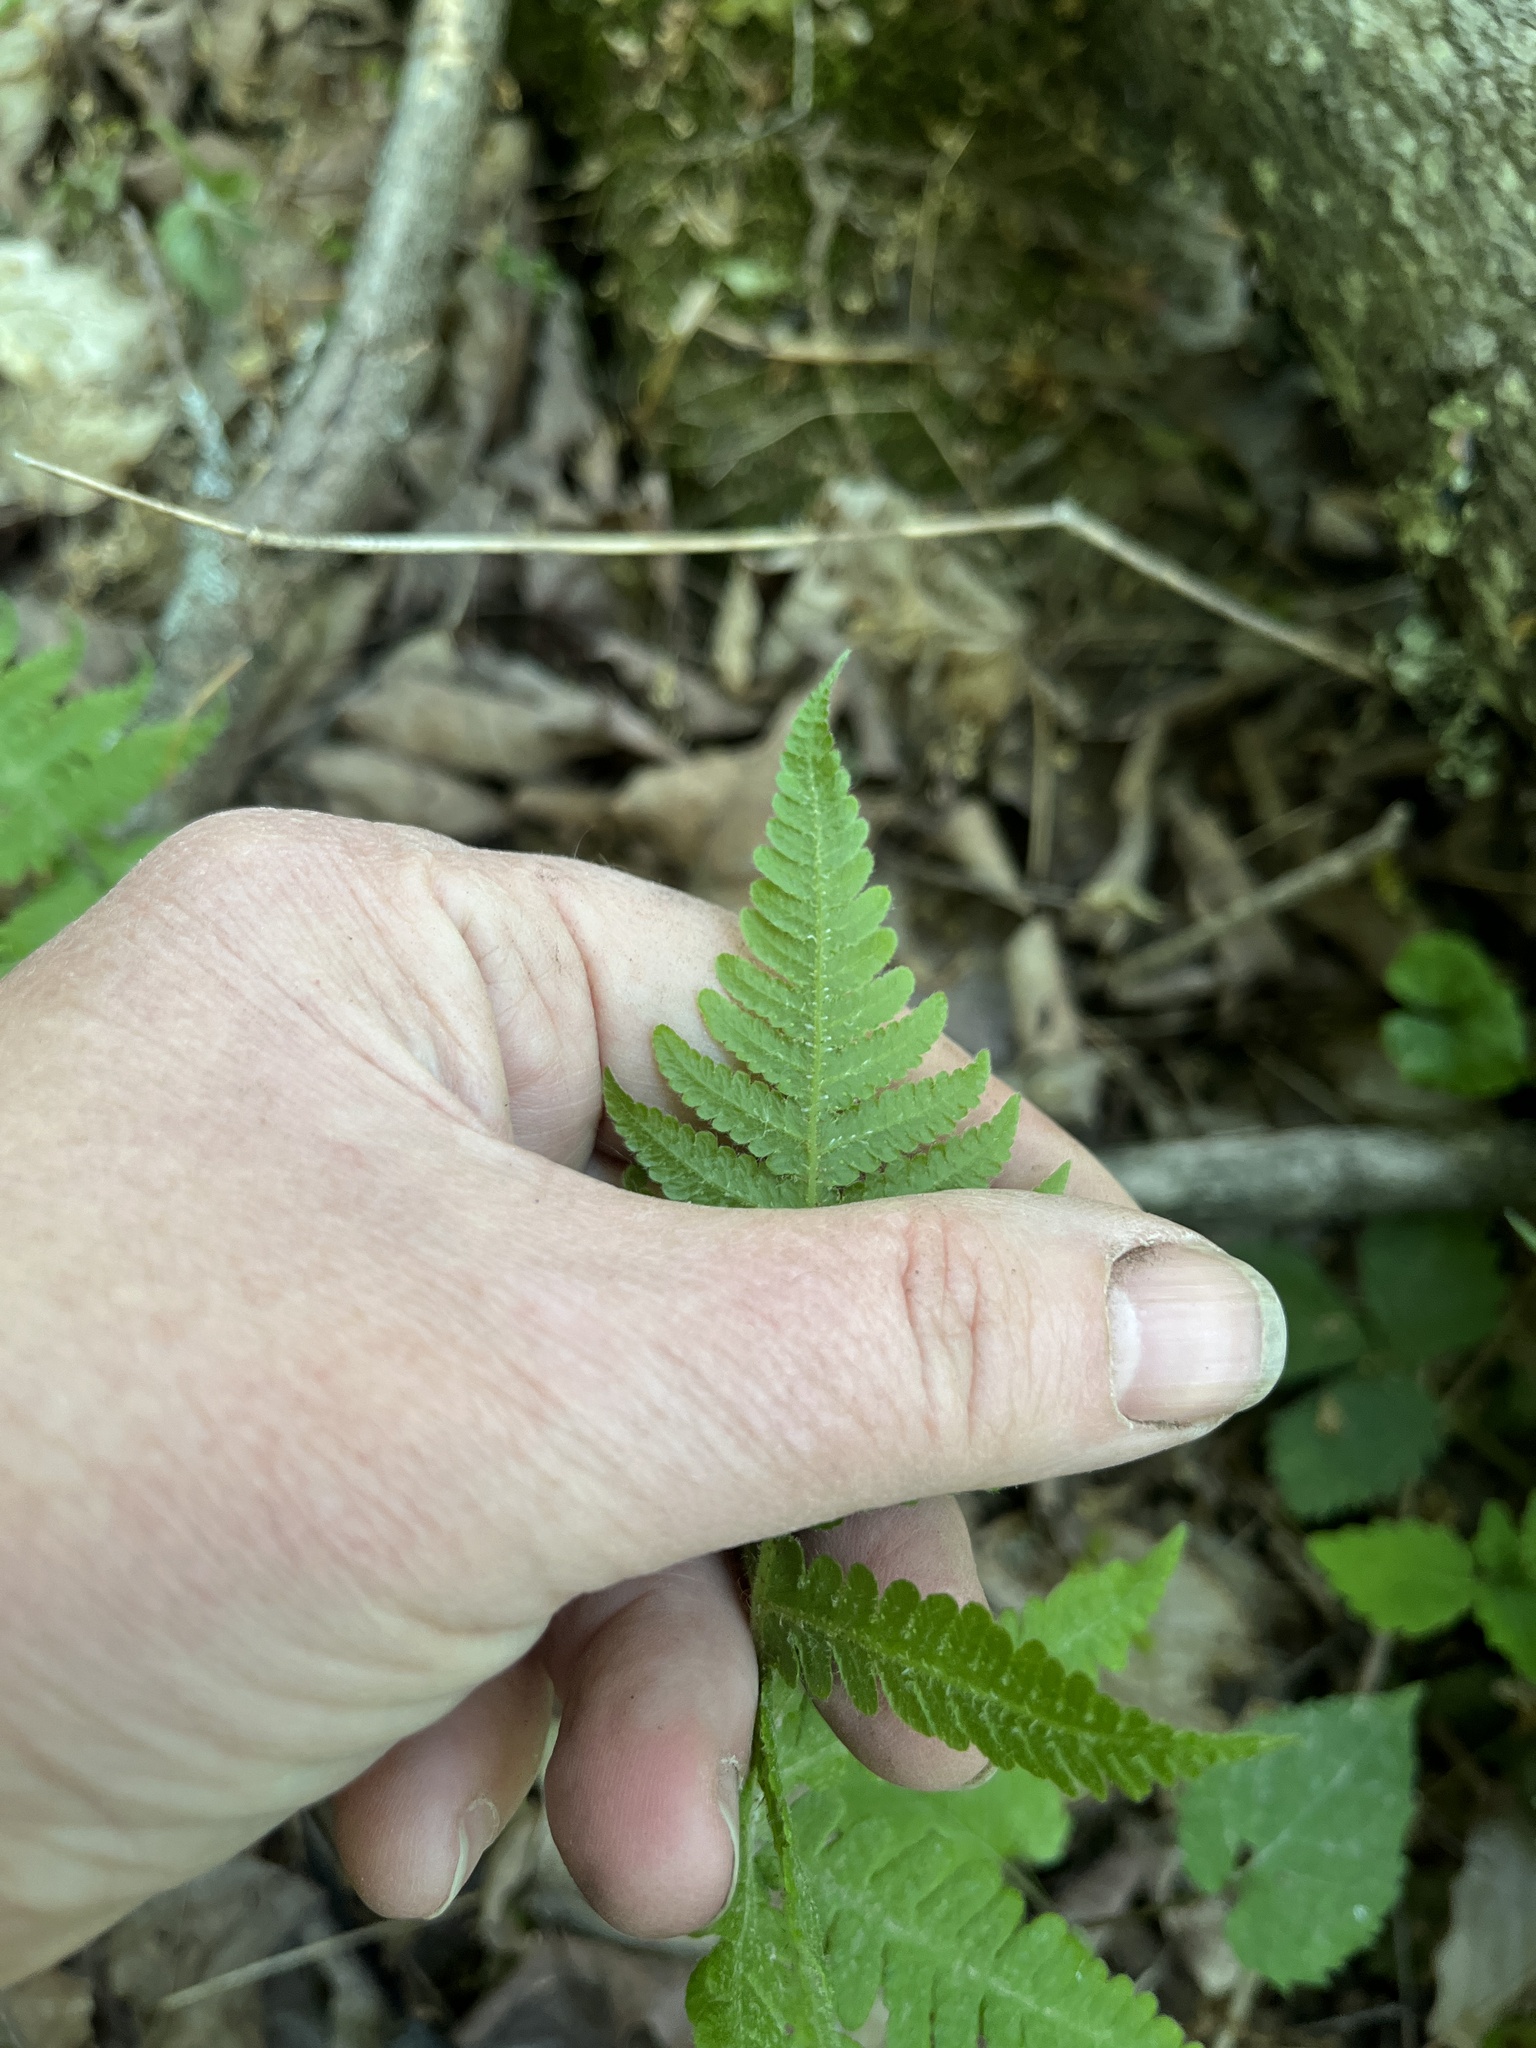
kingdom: Plantae
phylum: Tracheophyta
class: Polypodiopsida
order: Polypodiales
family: Thelypteridaceae
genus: Phegopteris
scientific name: Phegopteris connectilis
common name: Beech fern
